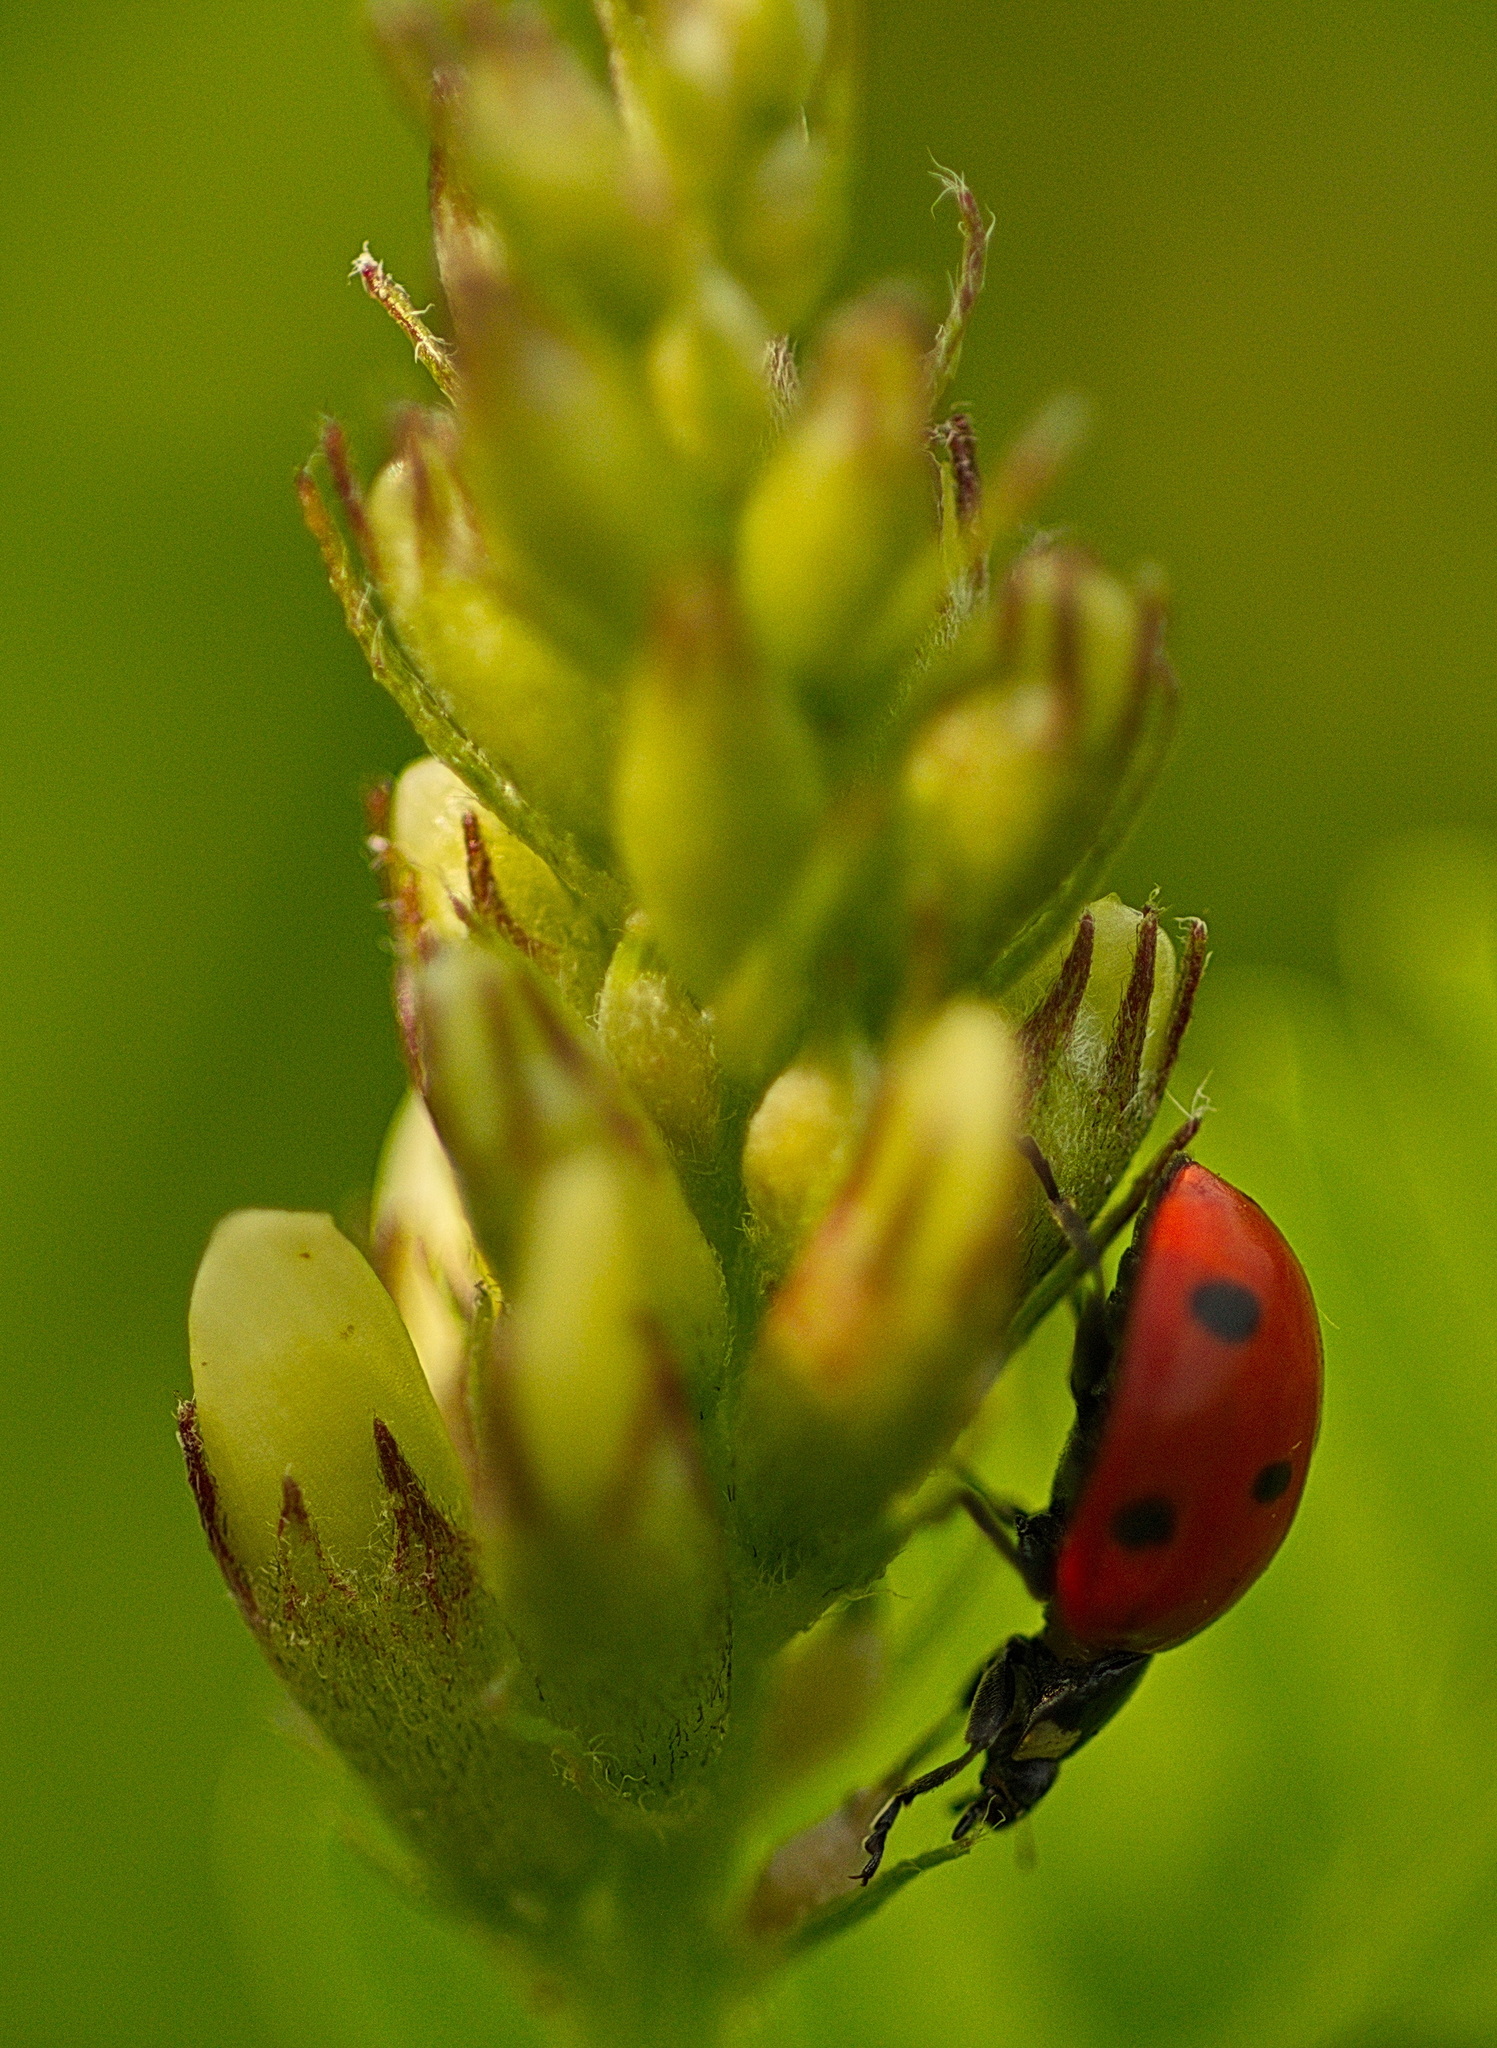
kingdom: Animalia
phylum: Arthropoda
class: Insecta
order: Coleoptera
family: Coccinellidae
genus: Coccinella
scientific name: Coccinella septempunctata
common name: Sevenspotted lady beetle
